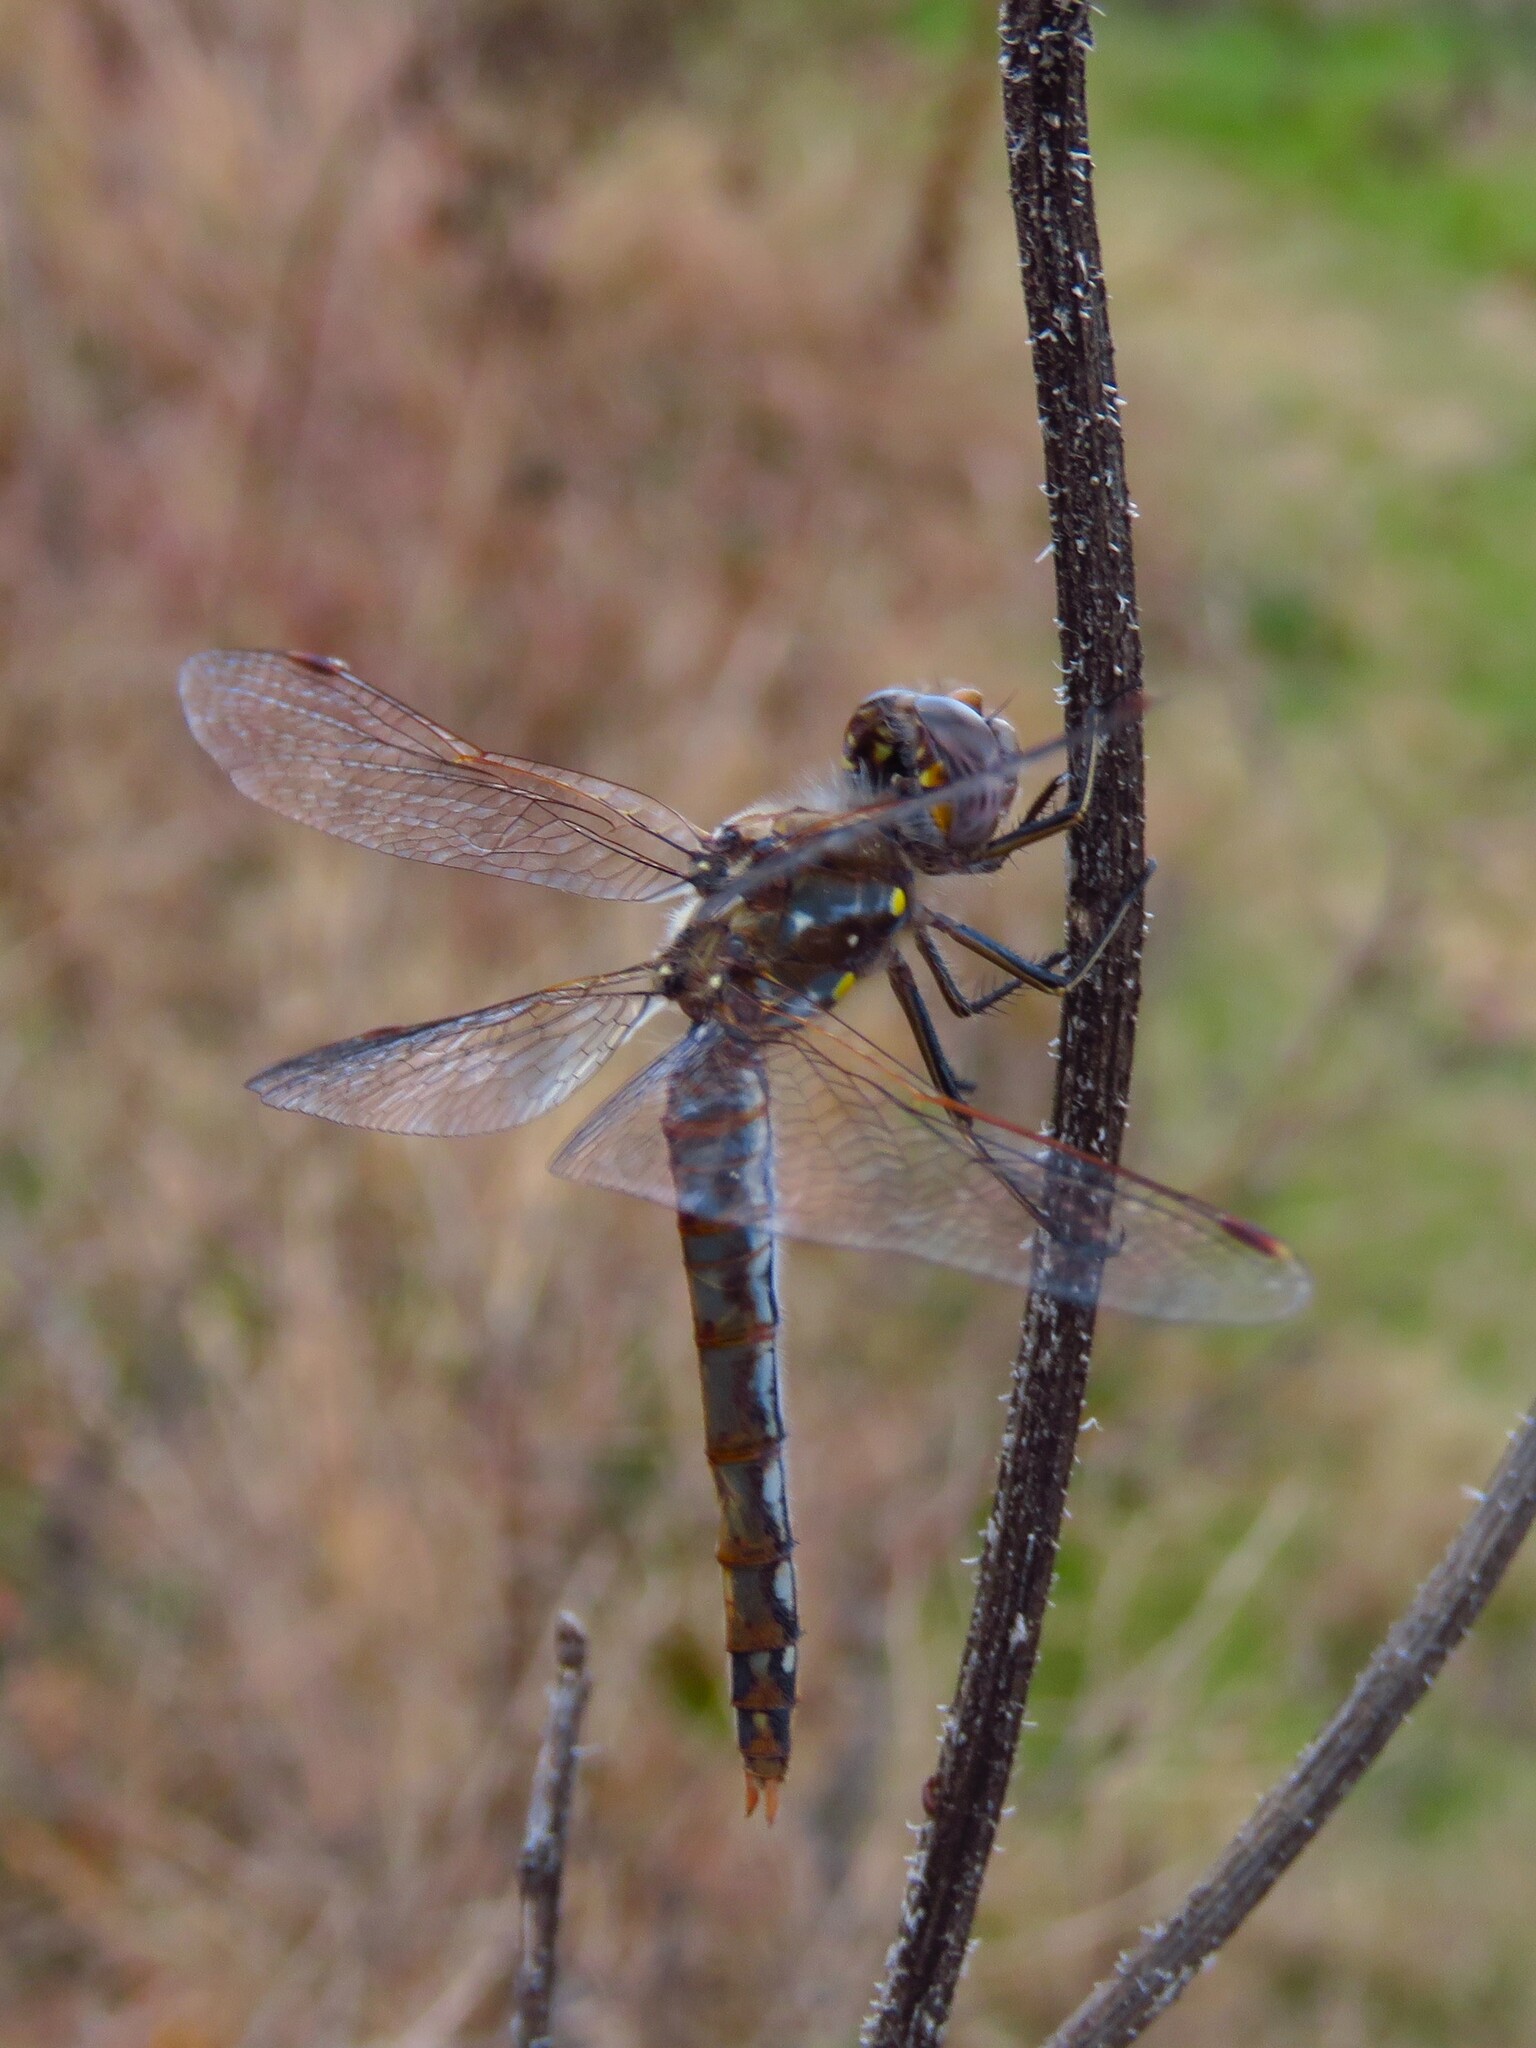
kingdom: Animalia
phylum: Arthropoda
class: Insecta
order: Odonata
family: Libellulidae
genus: Sympetrum
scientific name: Sympetrum corruptum
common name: Variegated meadowhawk
